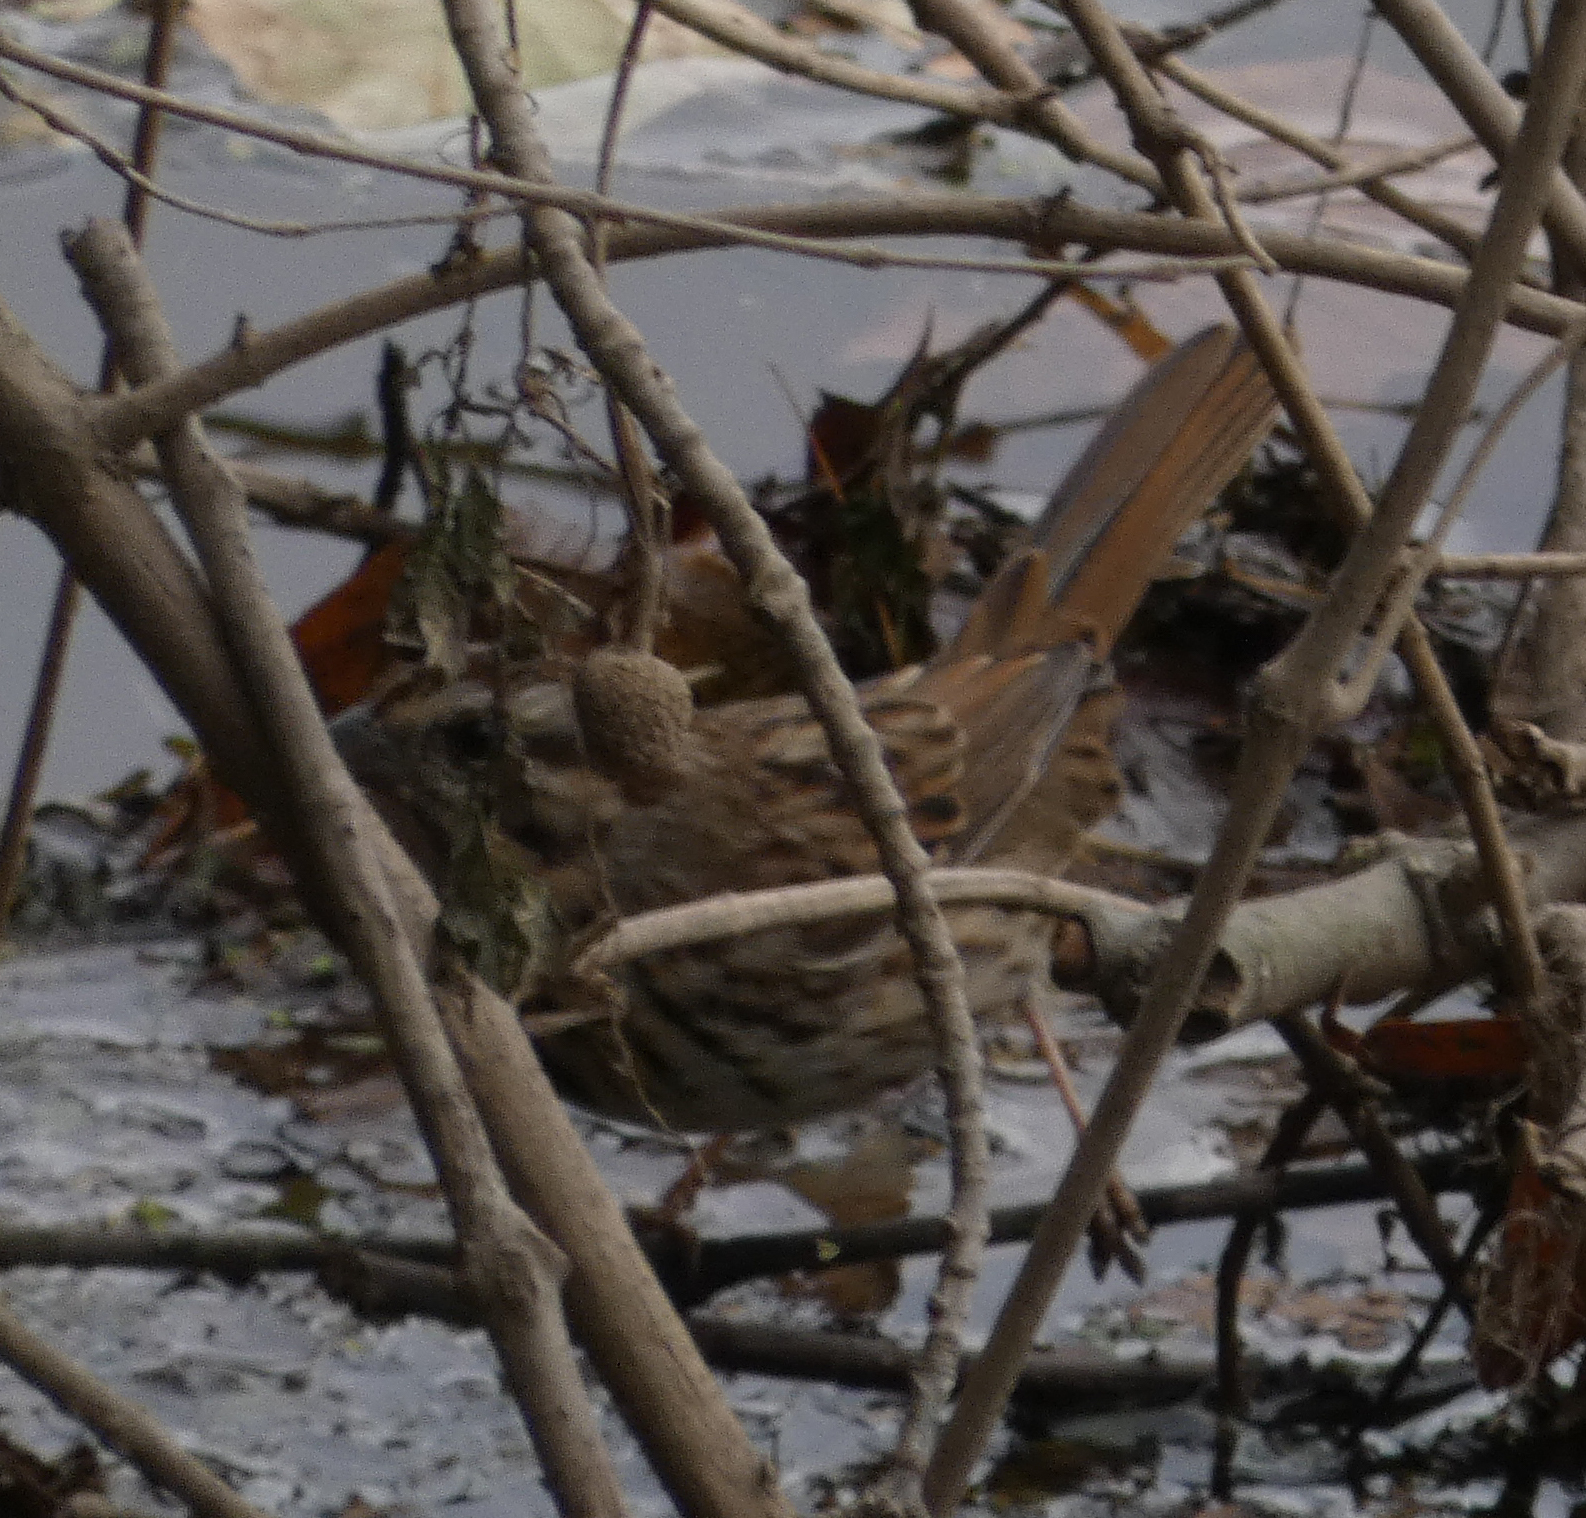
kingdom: Animalia
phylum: Chordata
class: Aves
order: Passeriformes
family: Passerellidae
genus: Melospiza
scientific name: Melospiza melodia
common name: Song sparrow
